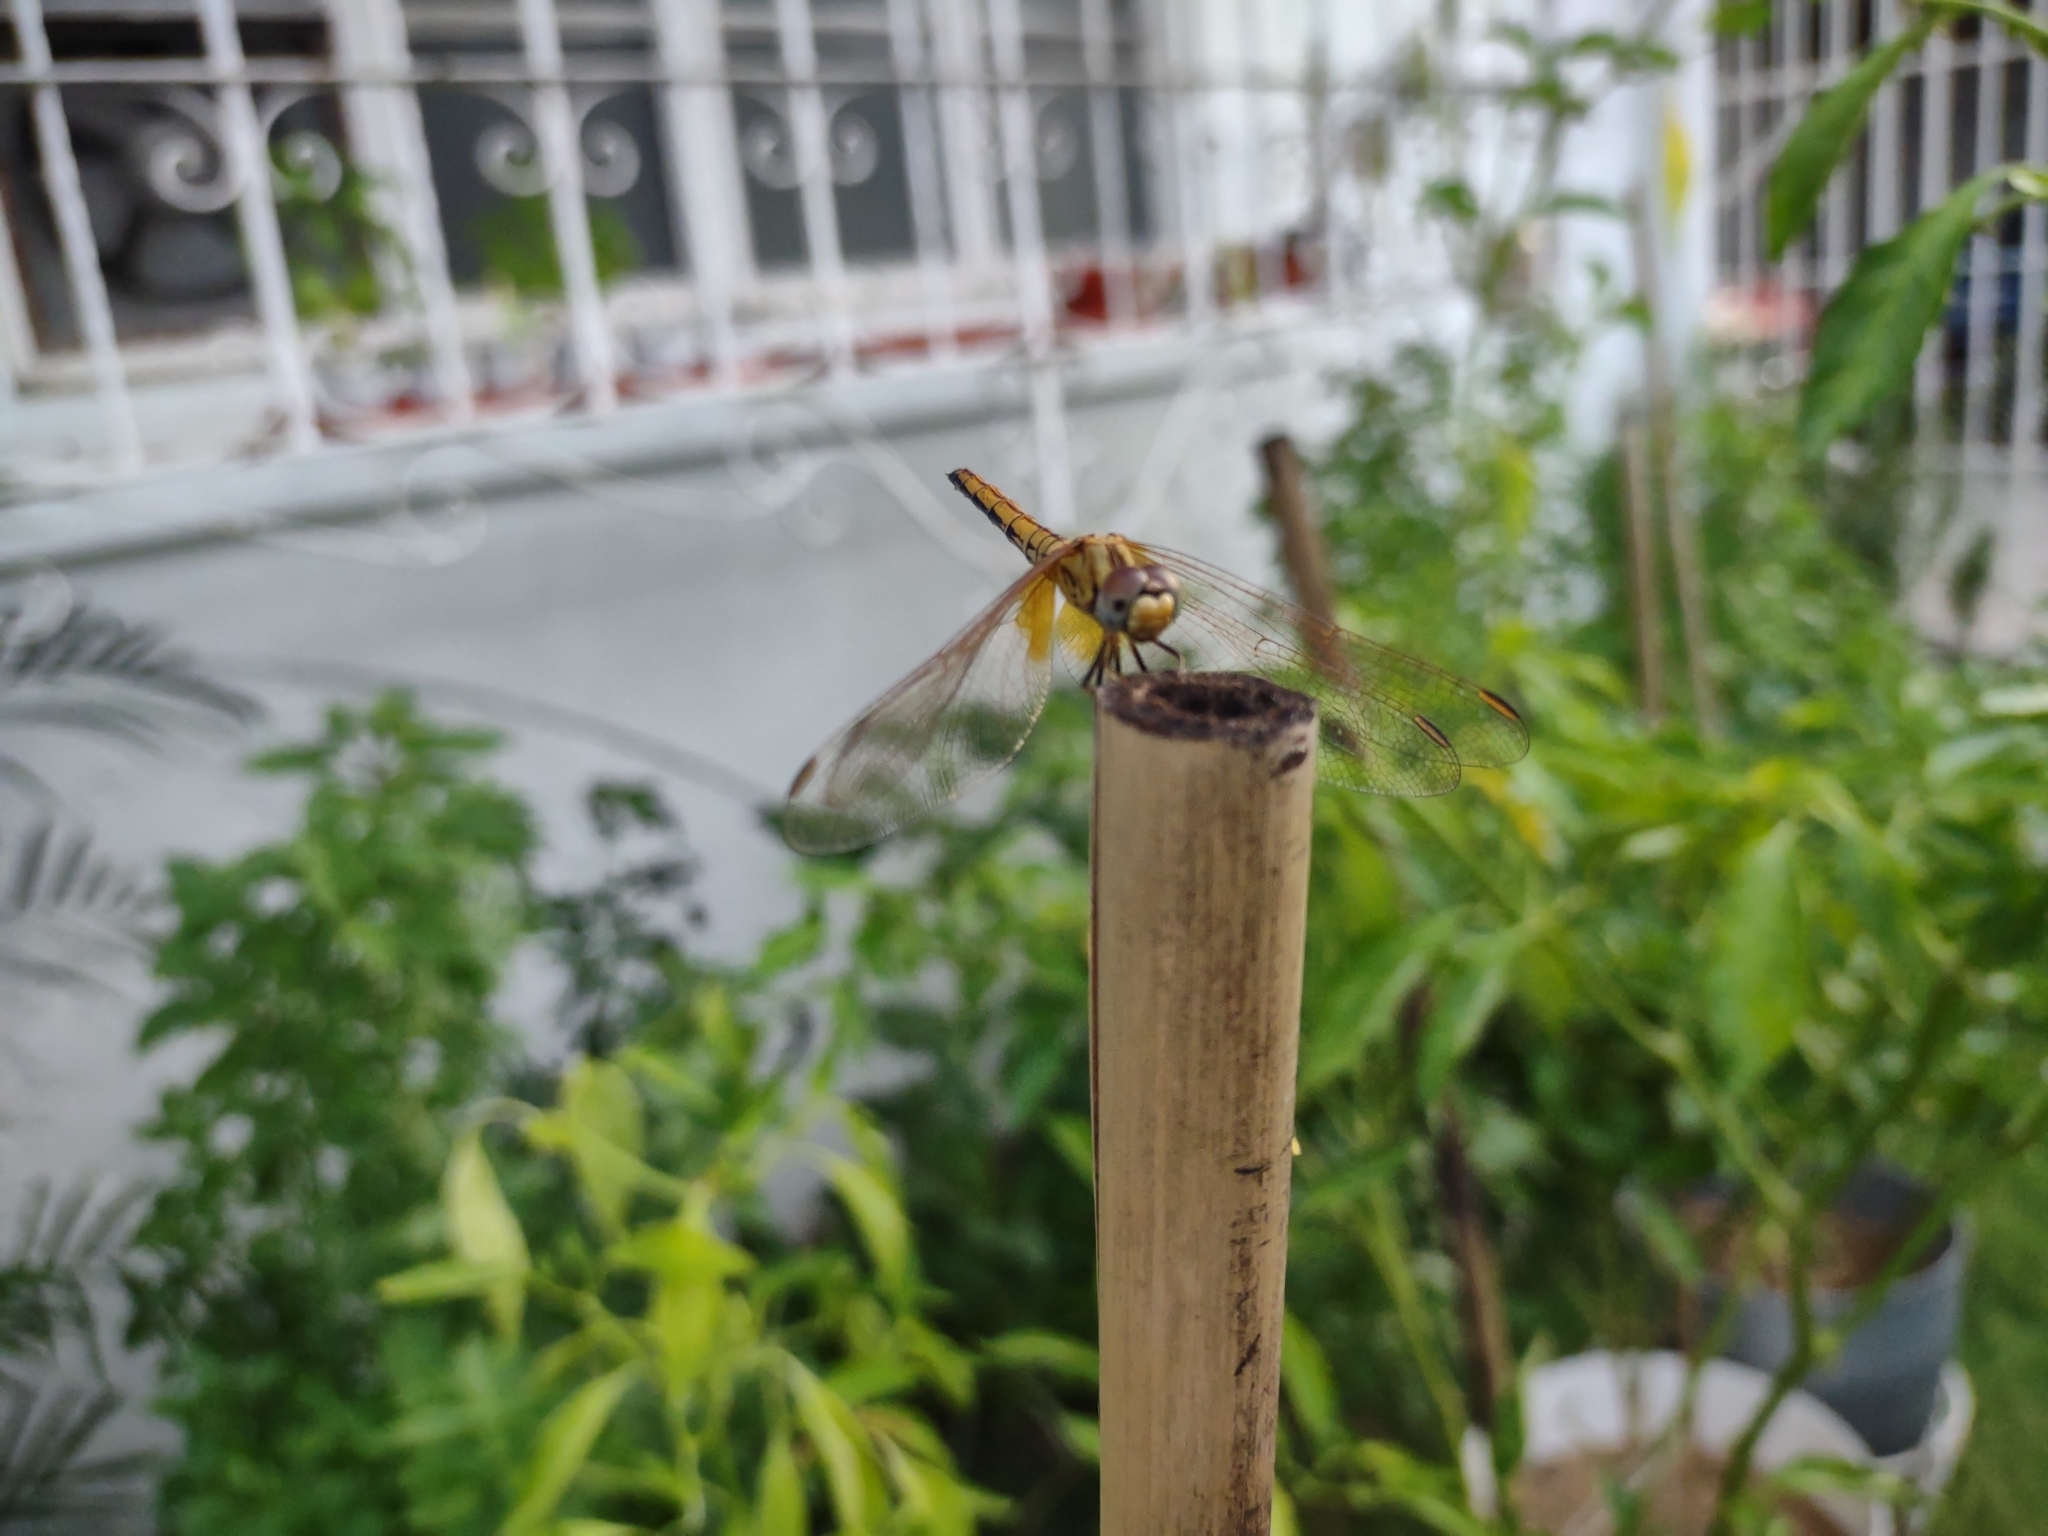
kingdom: Animalia
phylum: Arthropoda
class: Insecta
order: Odonata
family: Libellulidae
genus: Trithemis
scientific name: Trithemis aurora
